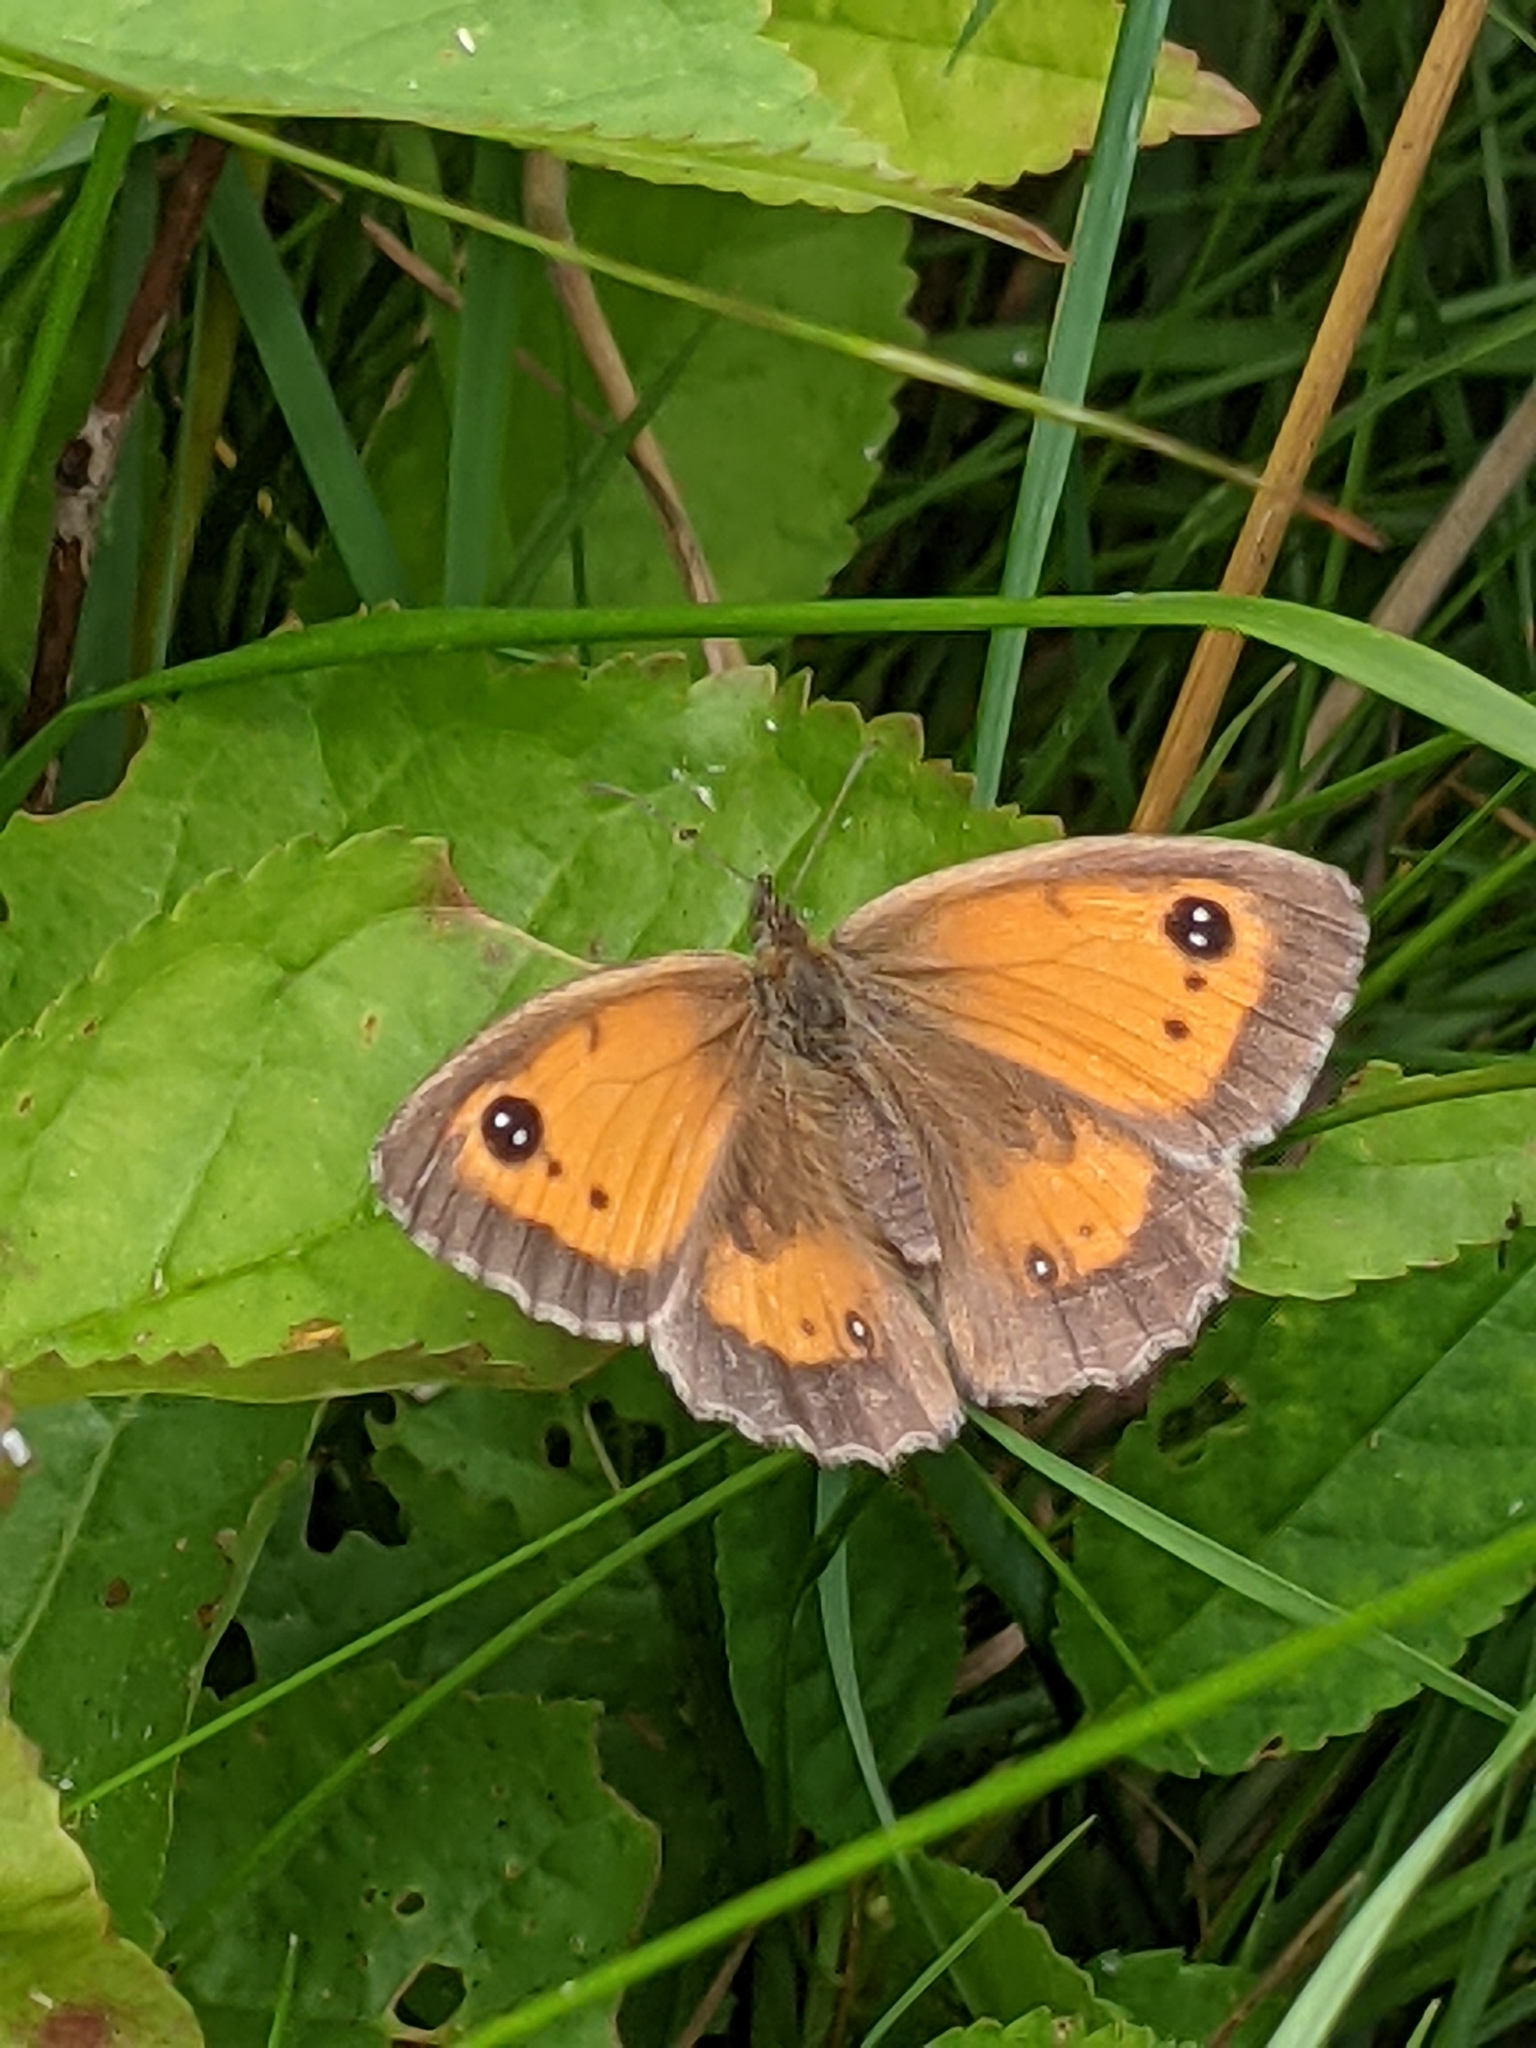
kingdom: Animalia
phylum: Arthropoda
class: Insecta
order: Lepidoptera
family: Nymphalidae
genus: Pyronia
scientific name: Pyronia tithonus
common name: Gatekeeper
